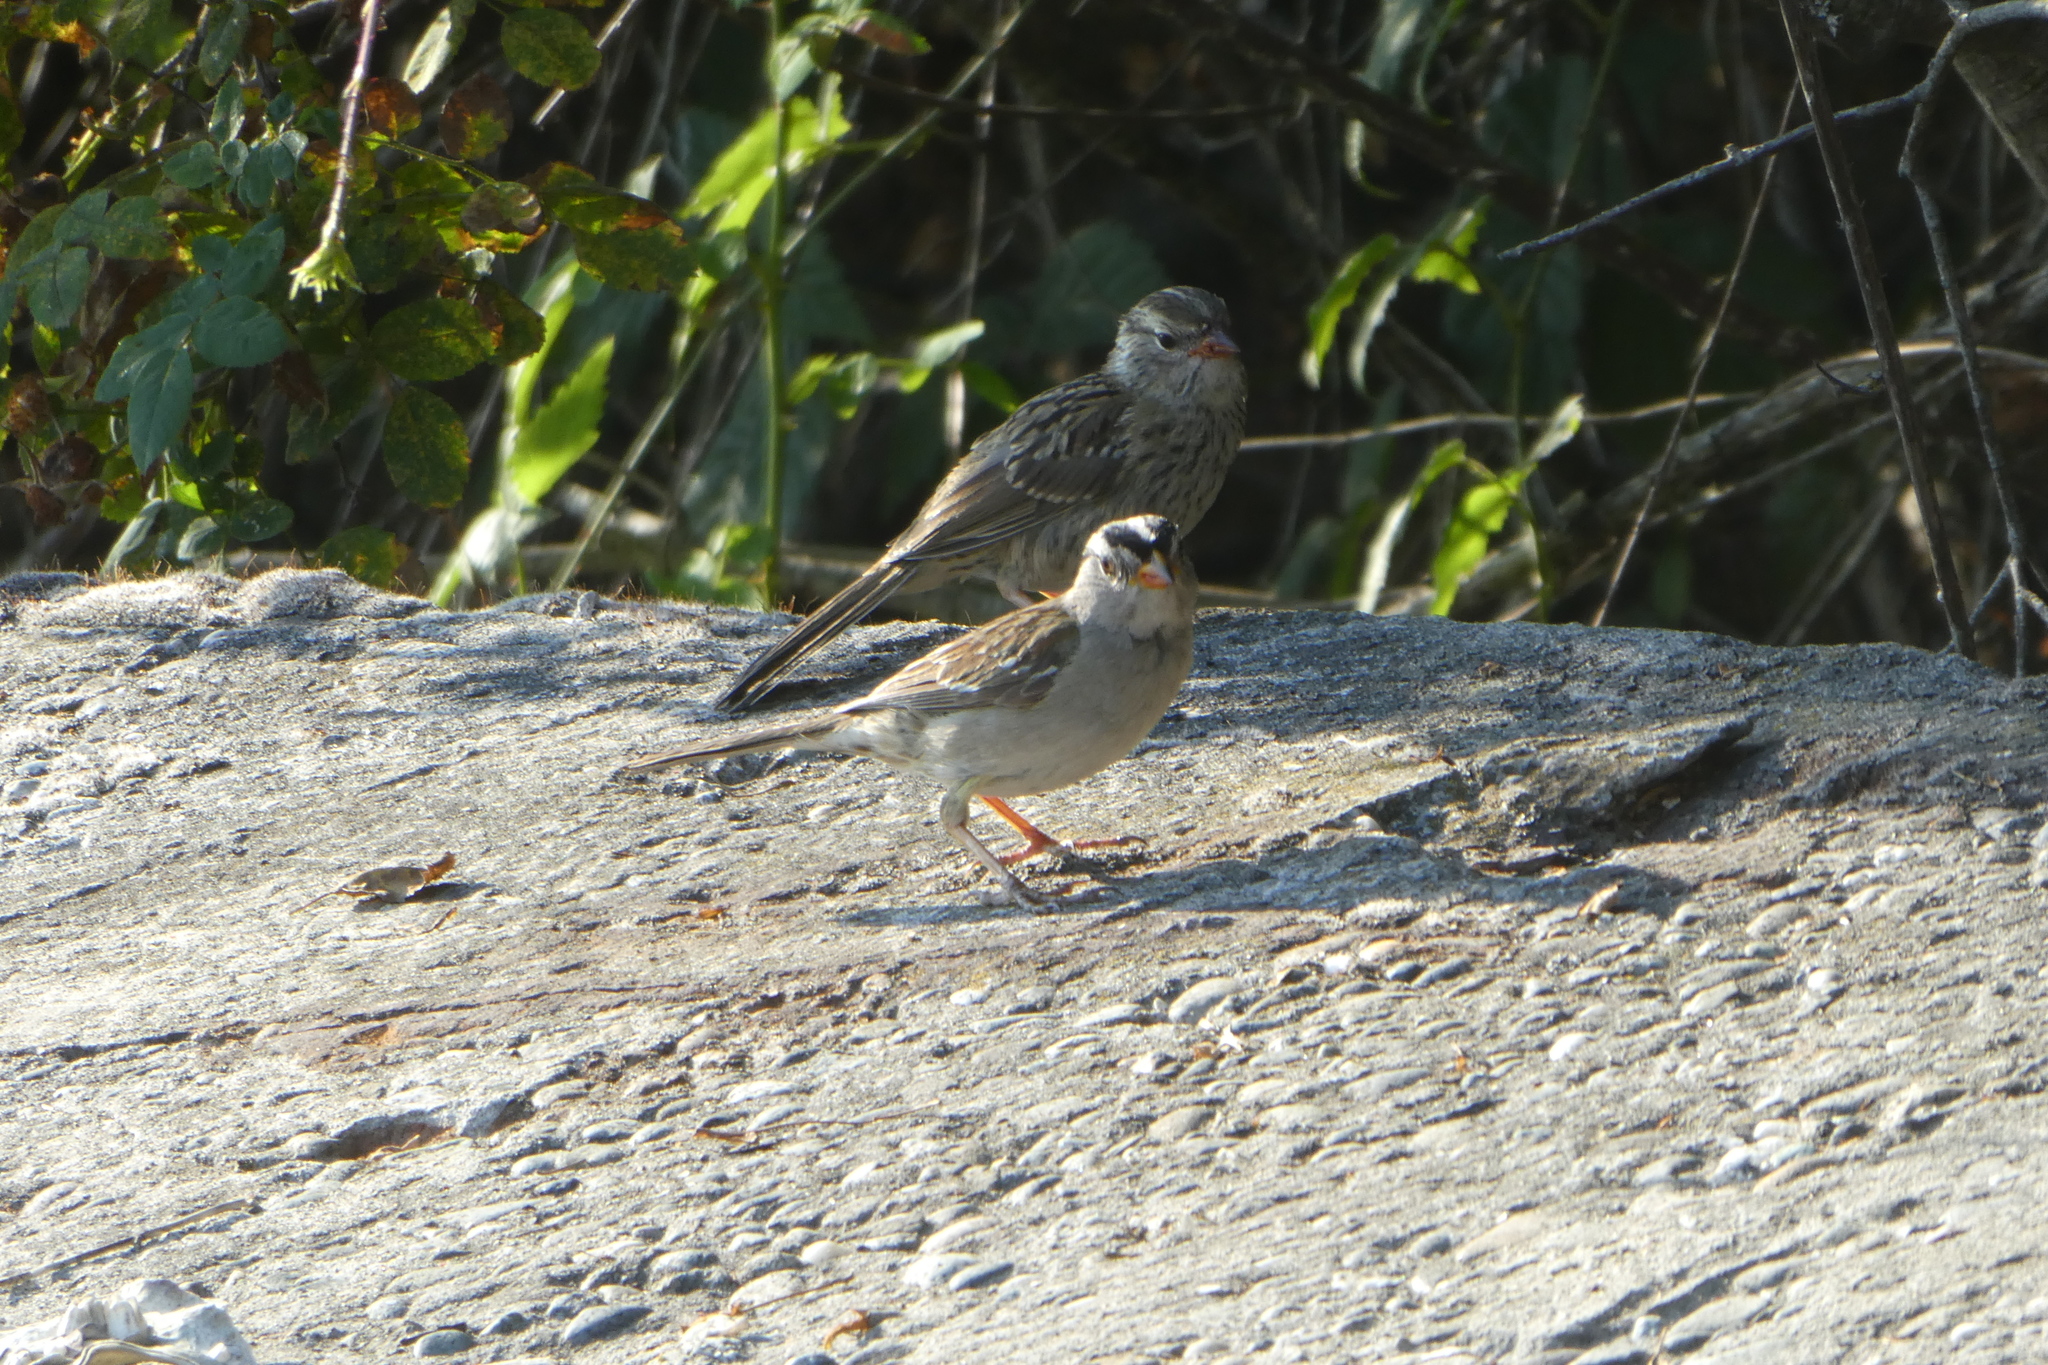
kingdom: Animalia
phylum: Chordata
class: Aves
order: Passeriformes
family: Passerellidae
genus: Zonotrichia
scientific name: Zonotrichia leucophrys
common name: White-crowned sparrow
